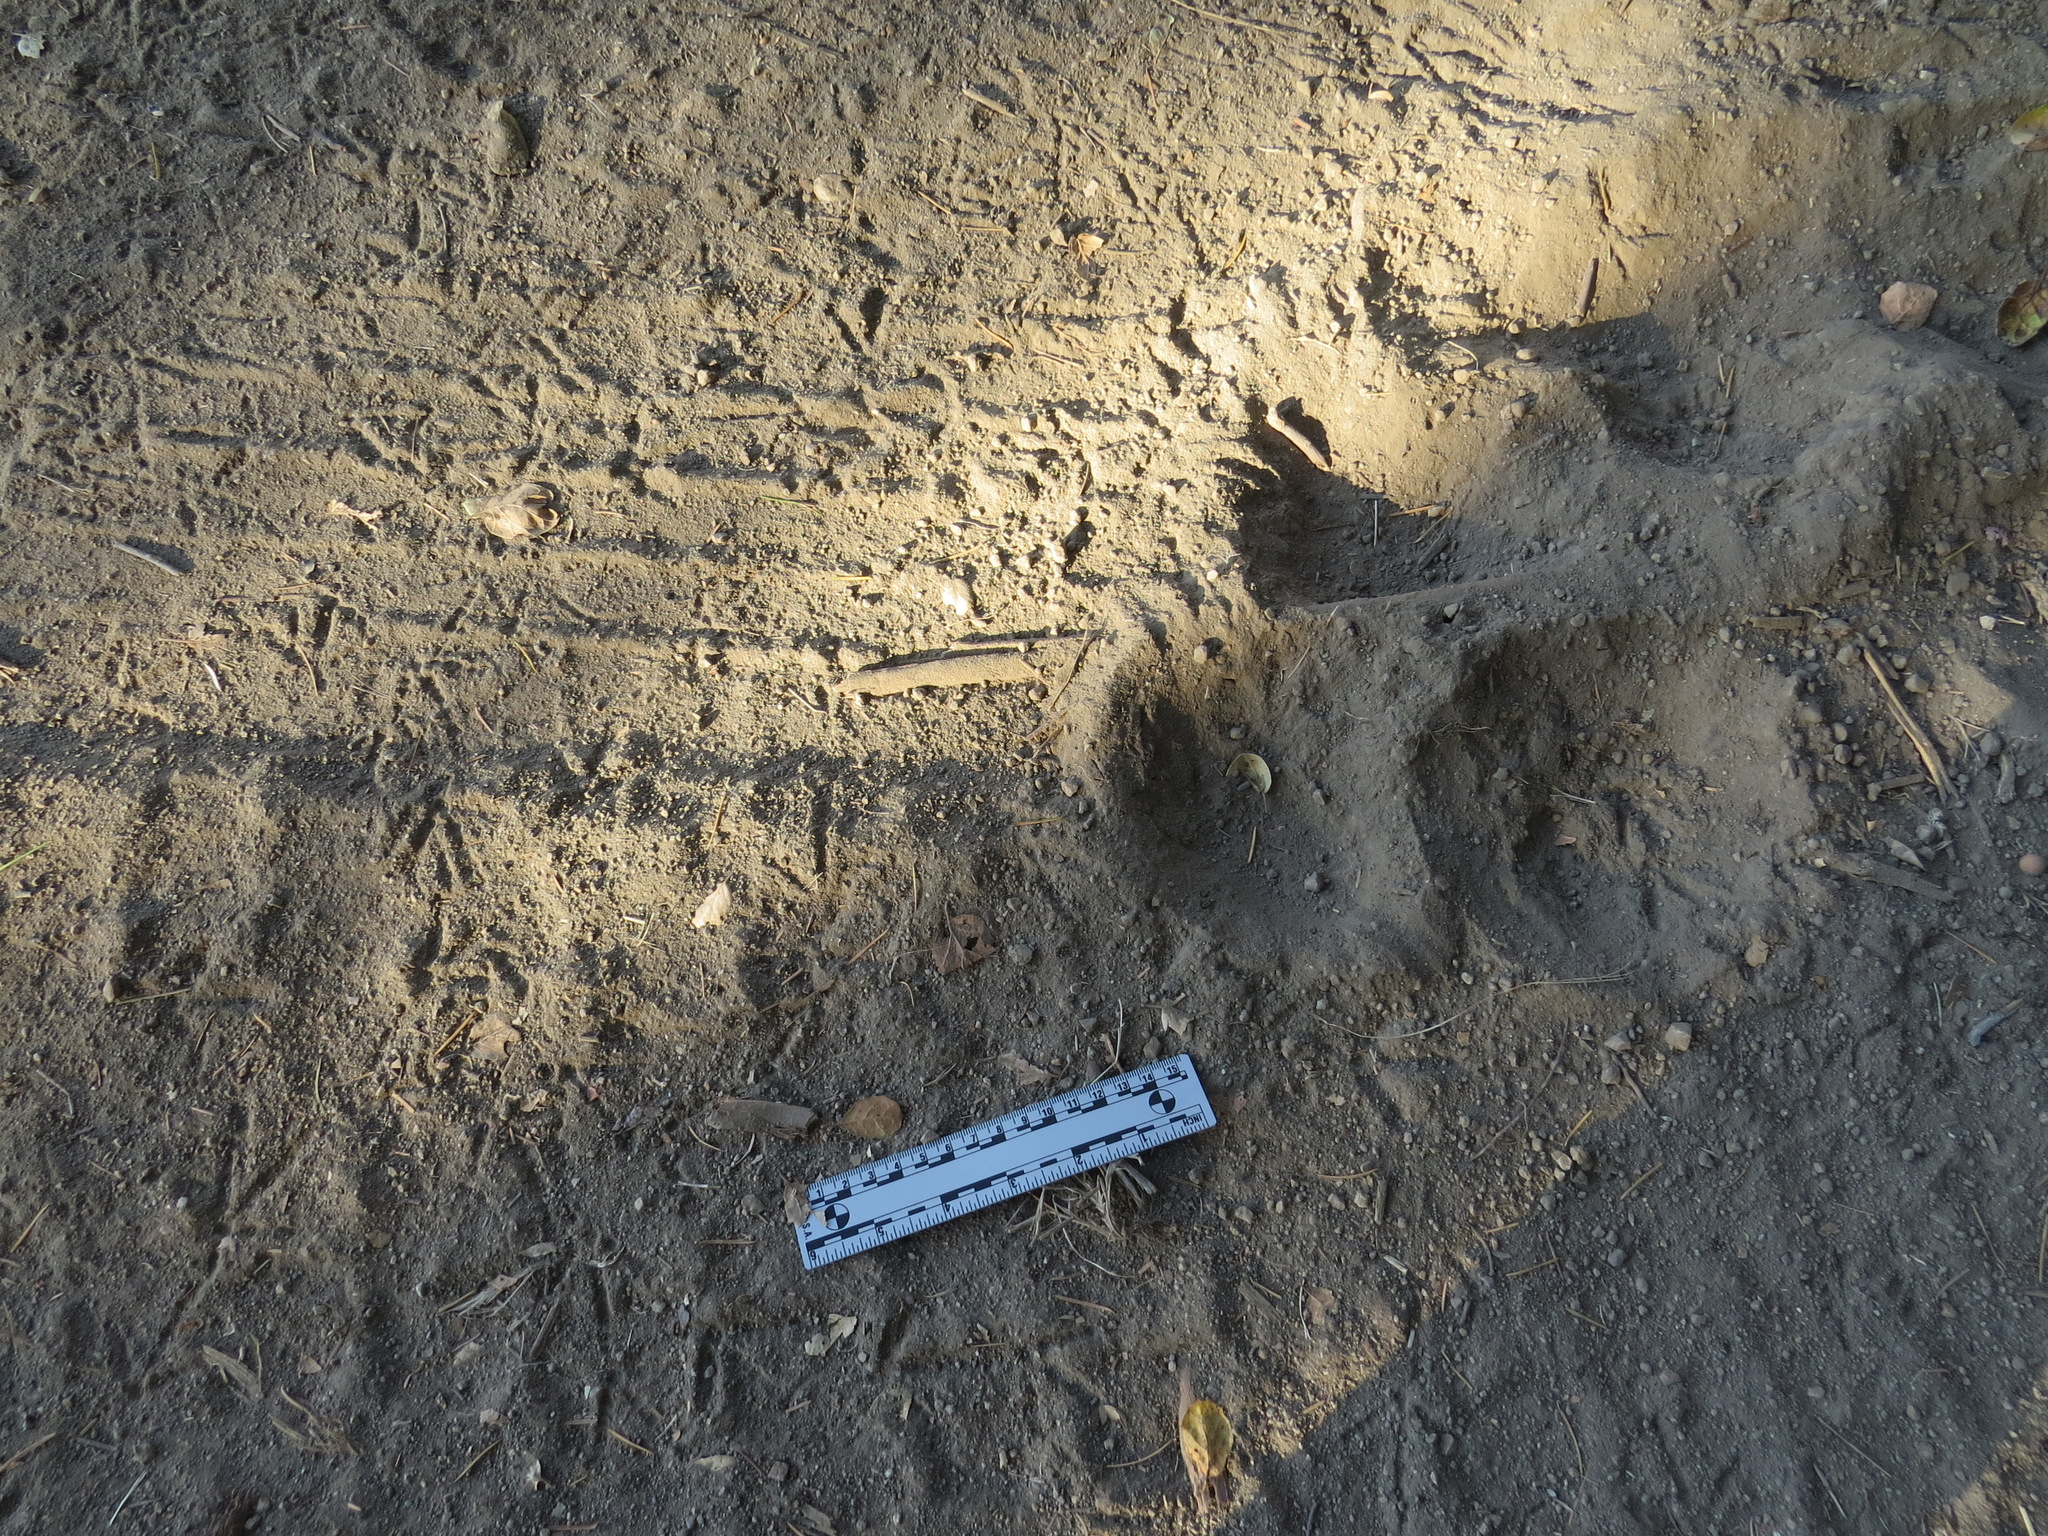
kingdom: Animalia
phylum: Chordata
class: Aves
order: Galliformes
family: Odontophoridae
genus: Callipepla
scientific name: Callipepla californica
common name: California quail
